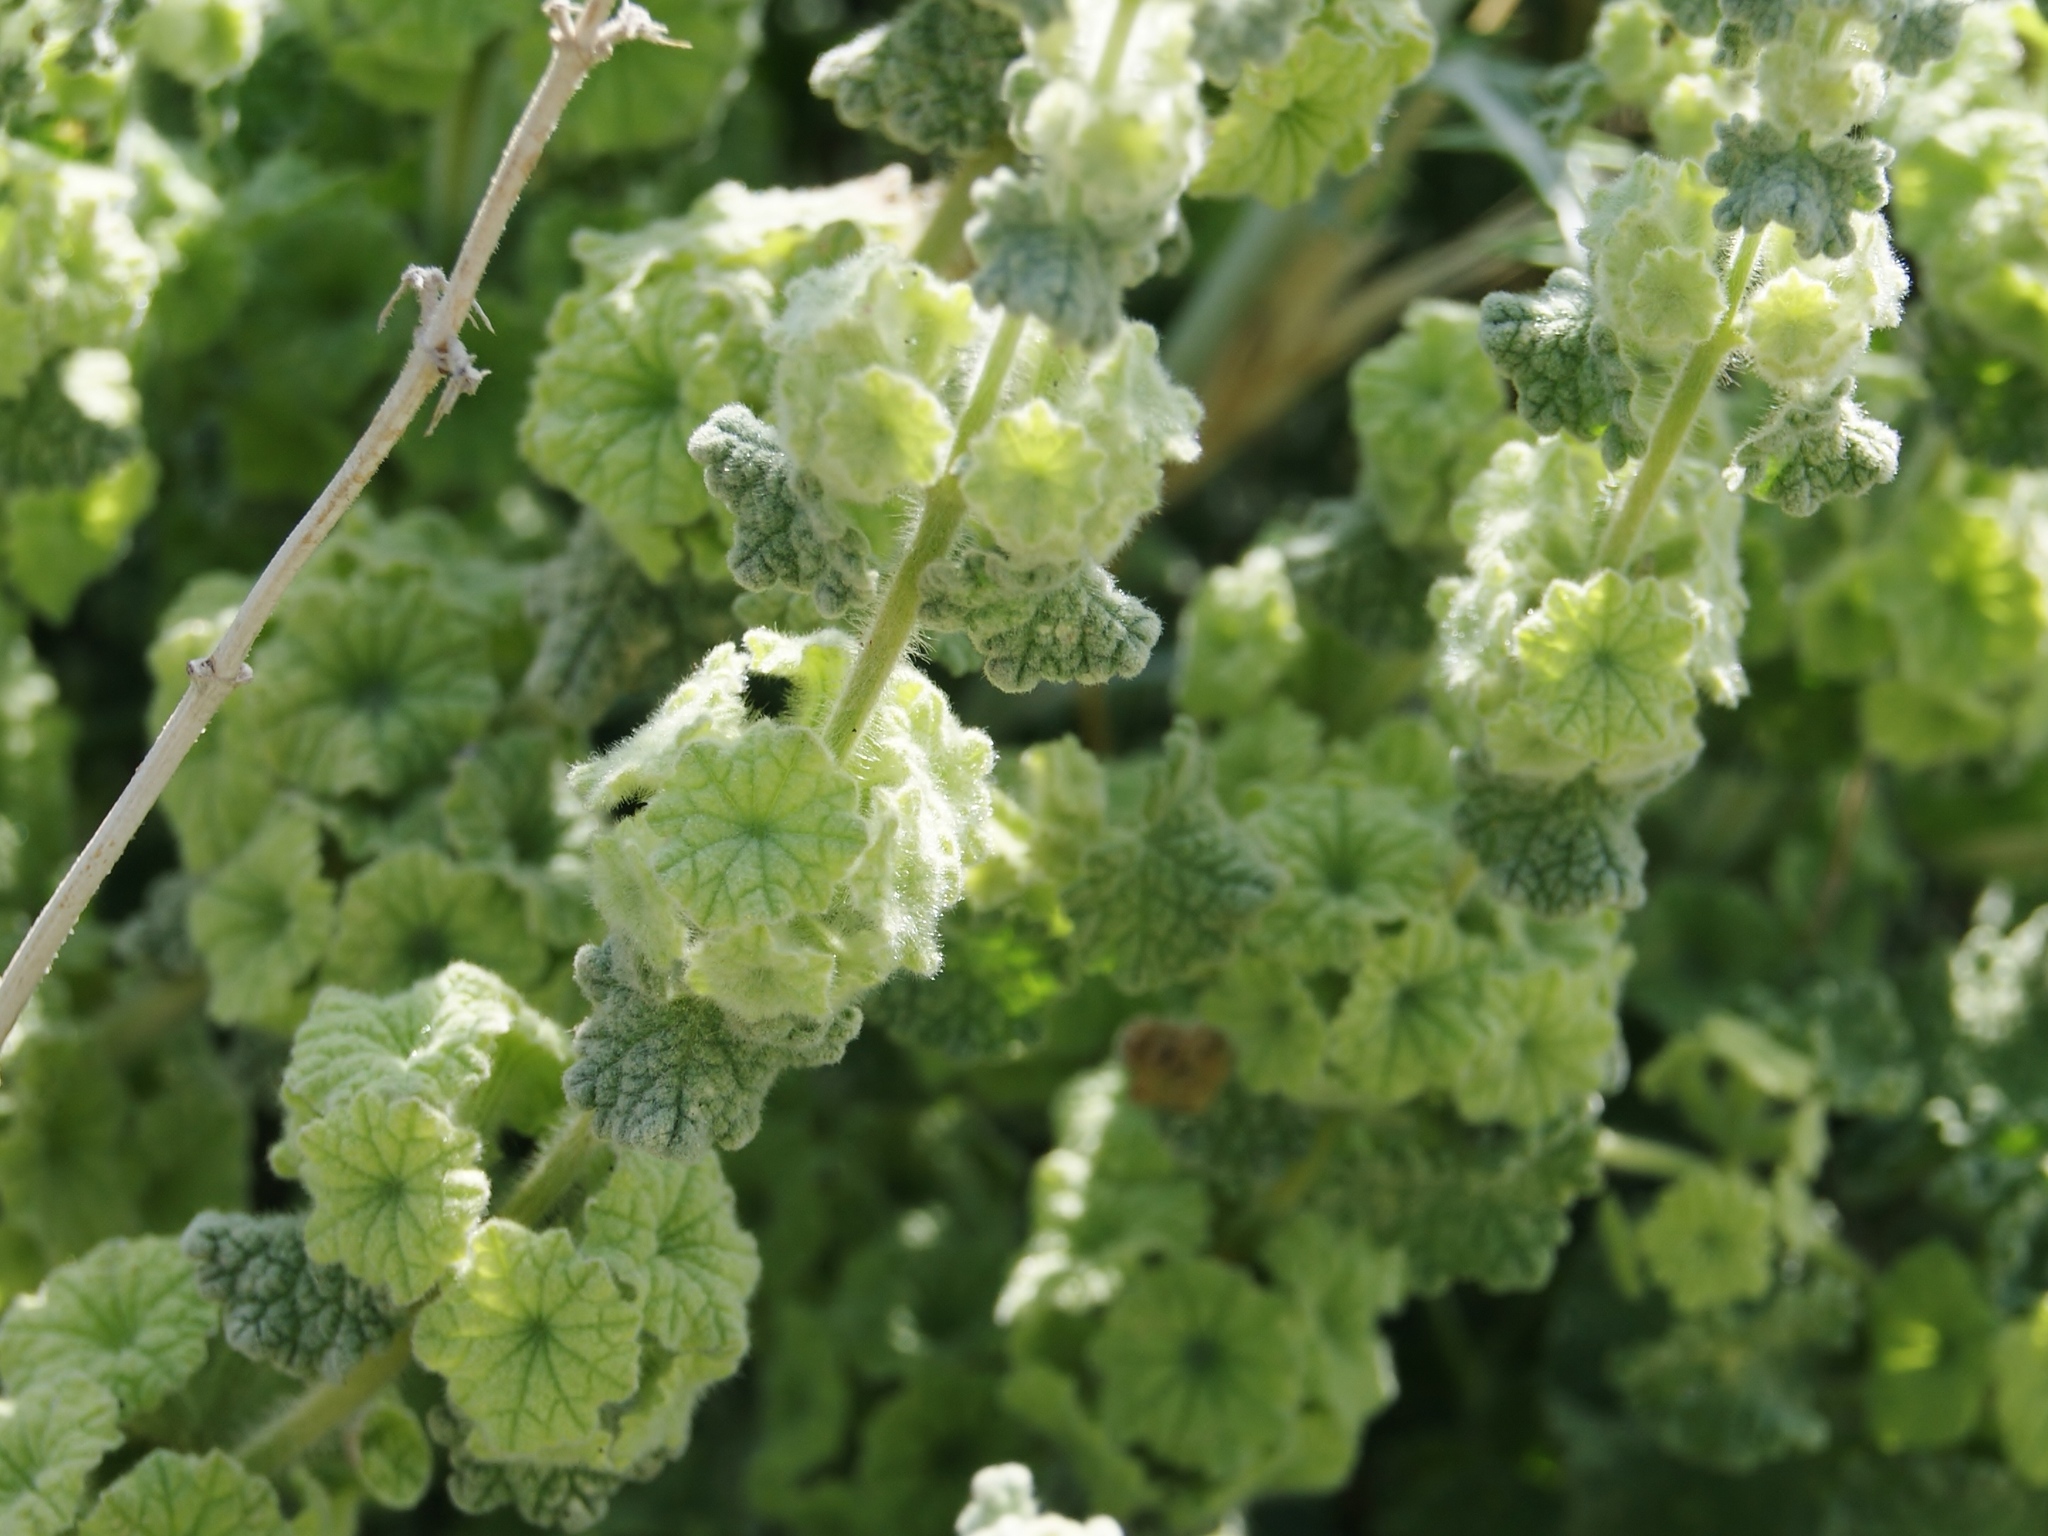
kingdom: Plantae
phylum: Tracheophyta
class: Magnoliopsida
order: Lamiales
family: Lamiaceae
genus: Pseudodictamnus
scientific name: Pseudodictamnus undulatus
